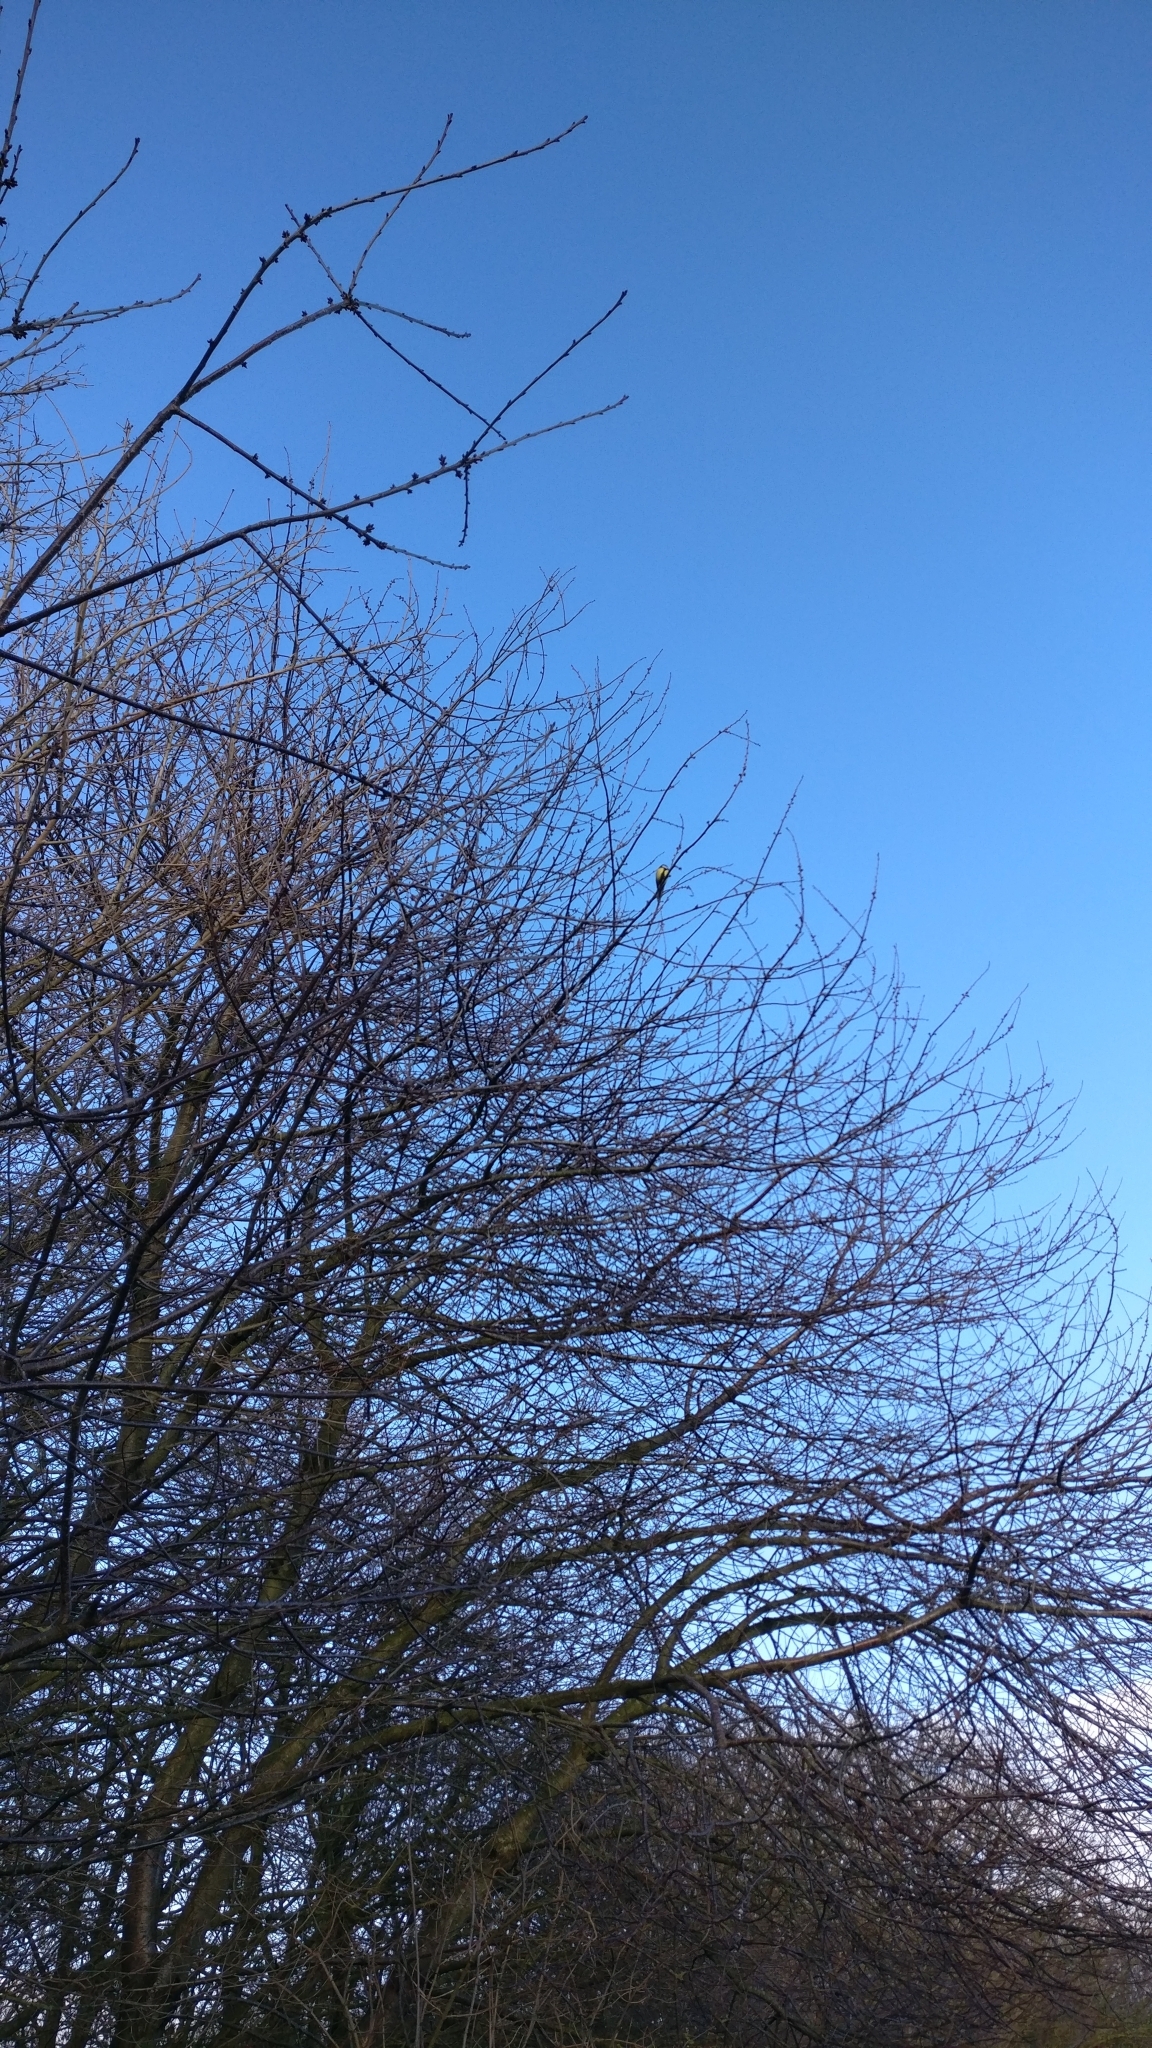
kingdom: Animalia
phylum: Chordata
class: Aves
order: Passeriformes
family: Paridae
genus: Parus
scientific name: Parus major
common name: Great tit
